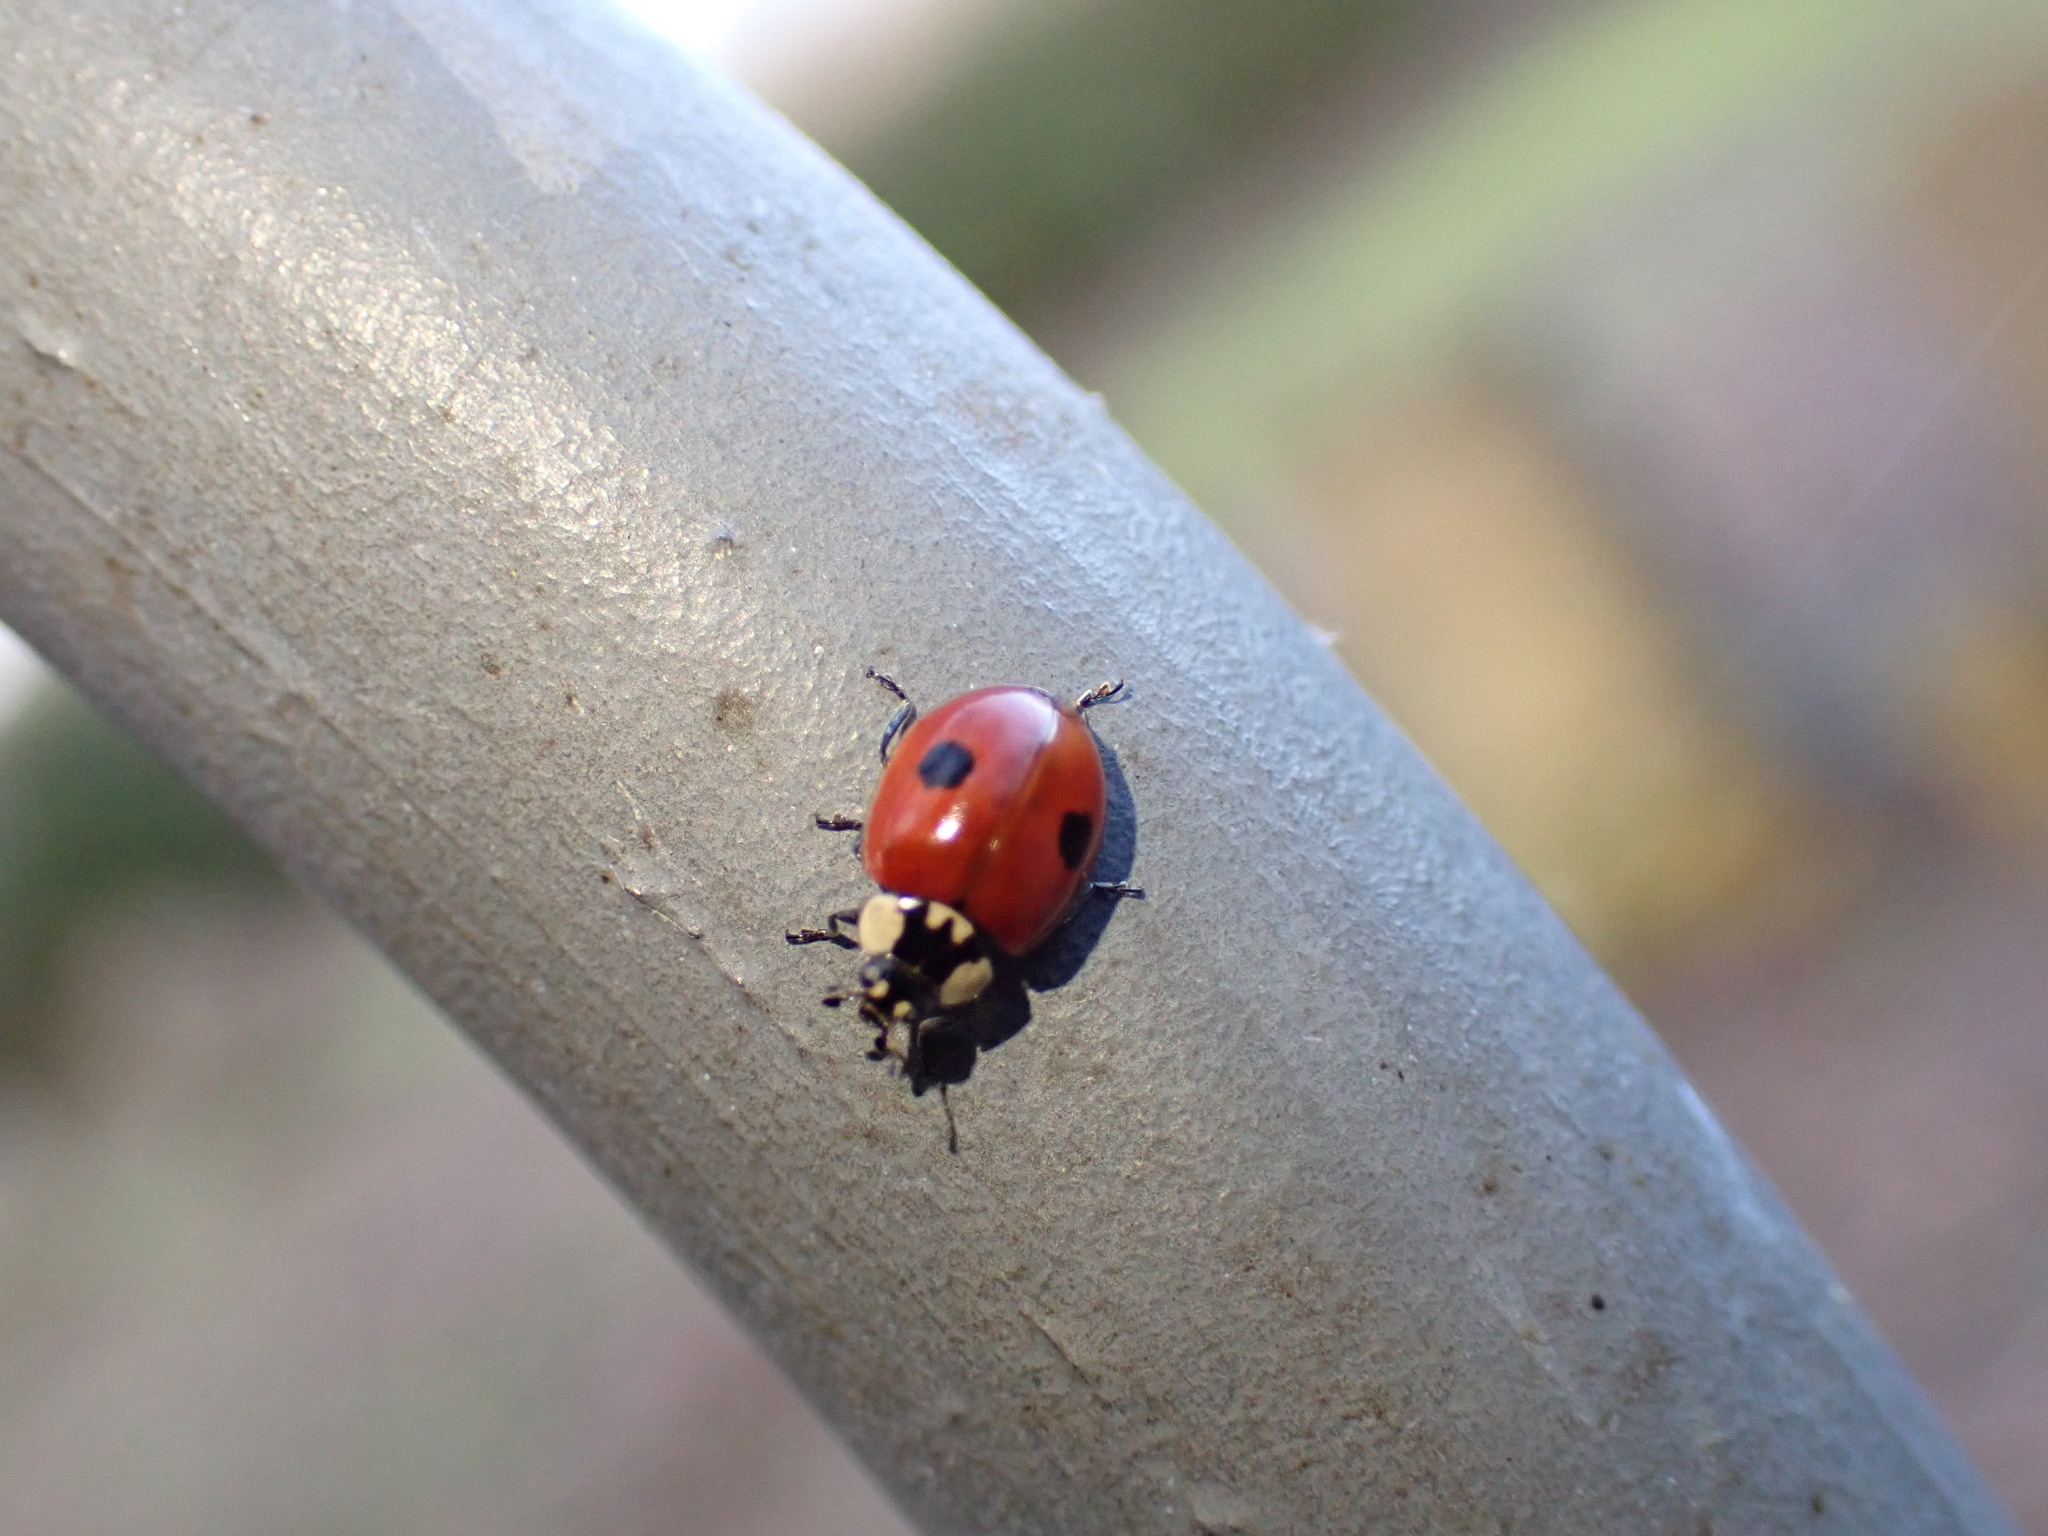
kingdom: Animalia
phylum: Arthropoda
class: Insecta
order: Coleoptera
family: Coccinellidae
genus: Adalia
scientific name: Adalia bipunctata
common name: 2-spot ladybird
